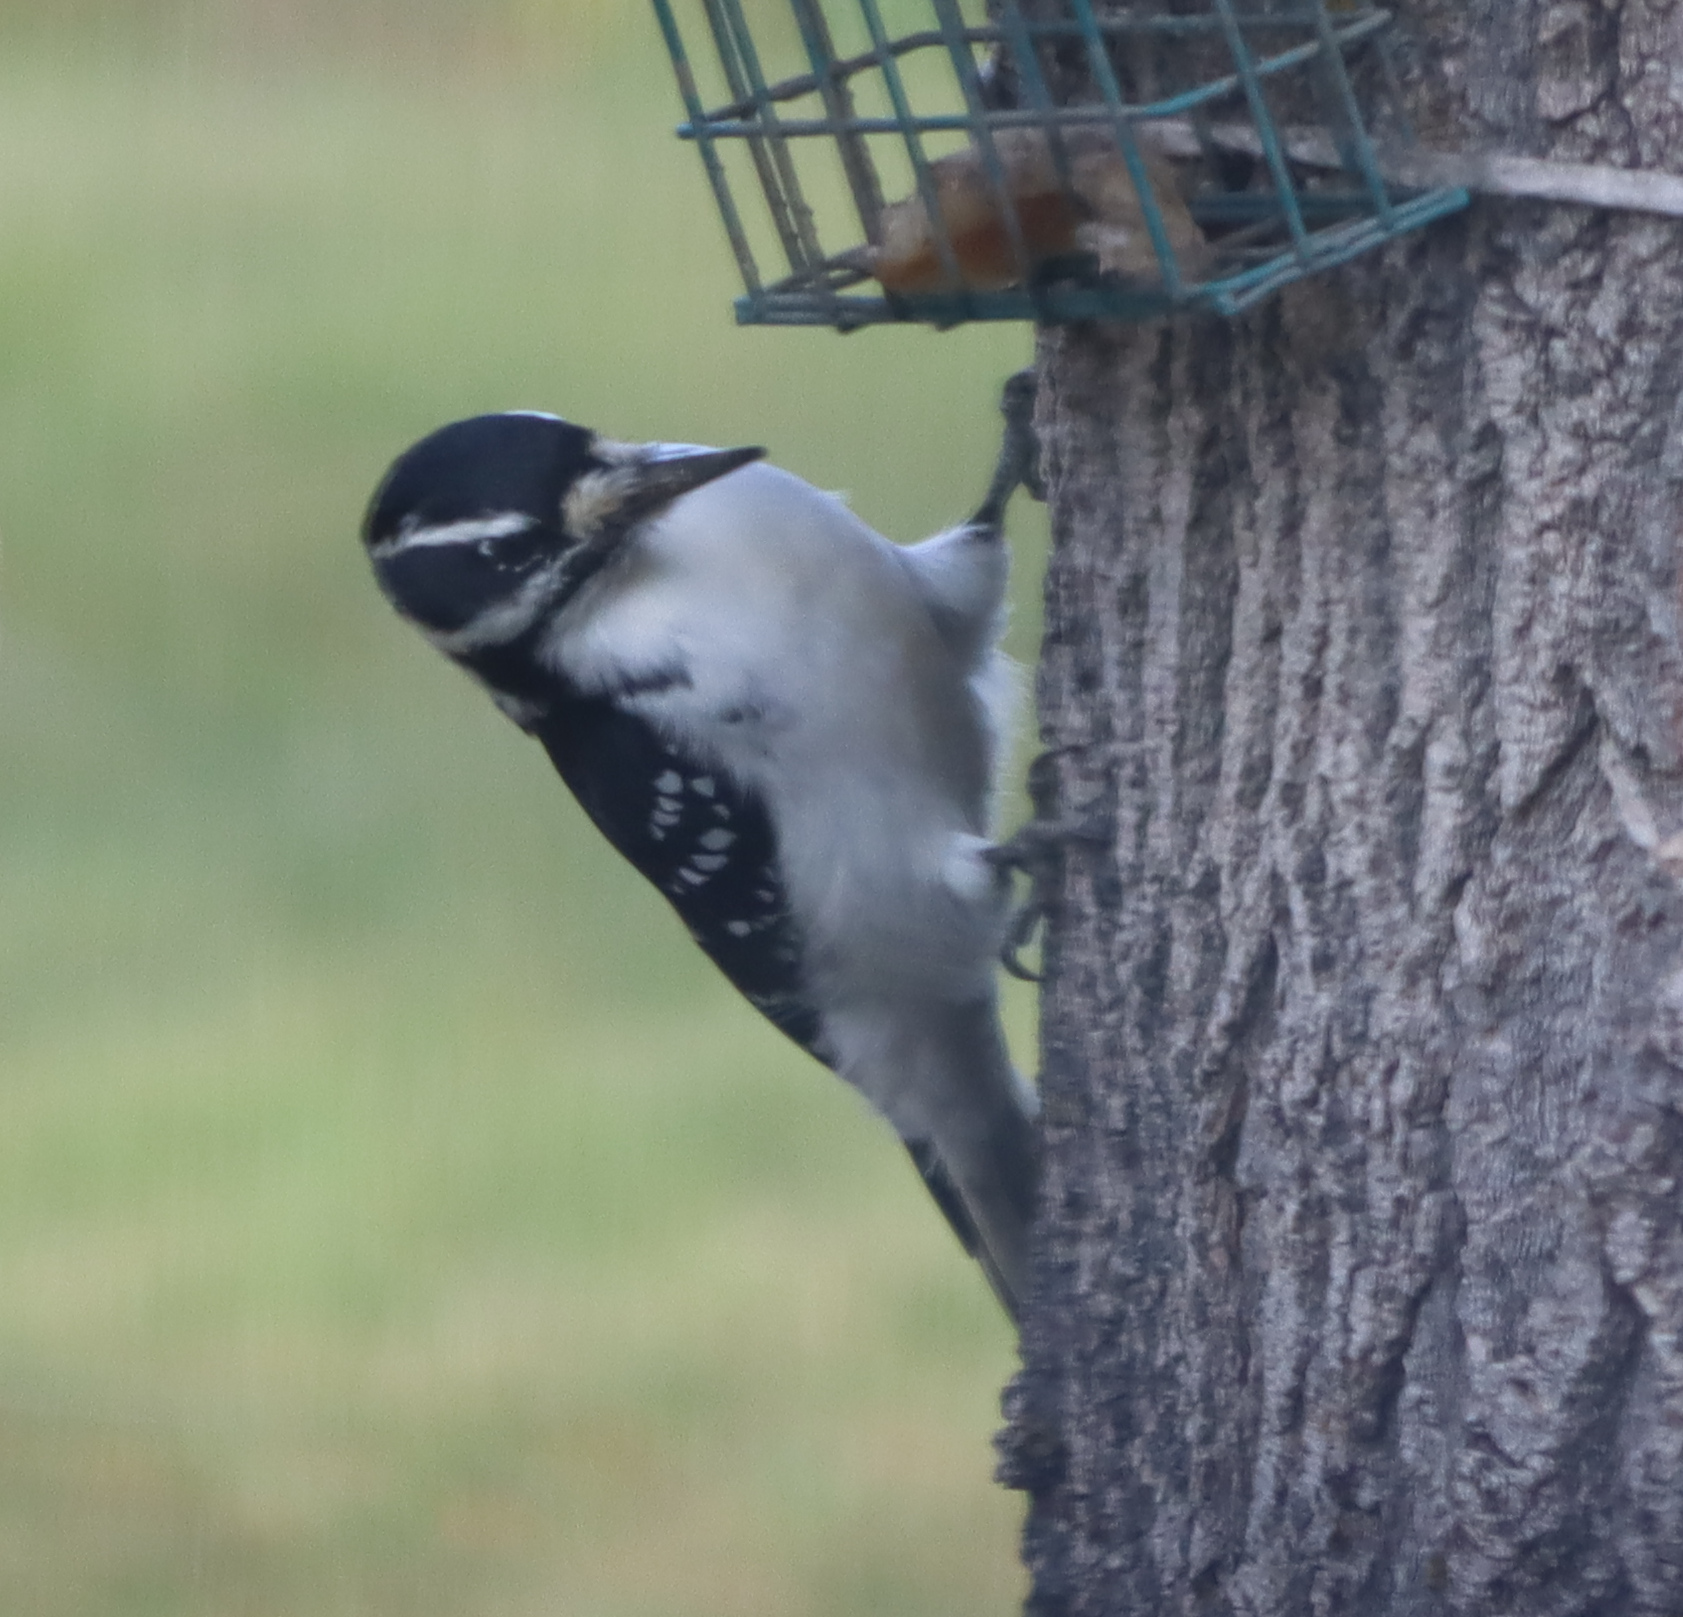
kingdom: Animalia
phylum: Chordata
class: Aves
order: Piciformes
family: Picidae
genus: Leuconotopicus
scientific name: Leuconotopicus villosus
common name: Hairy woodpecker
